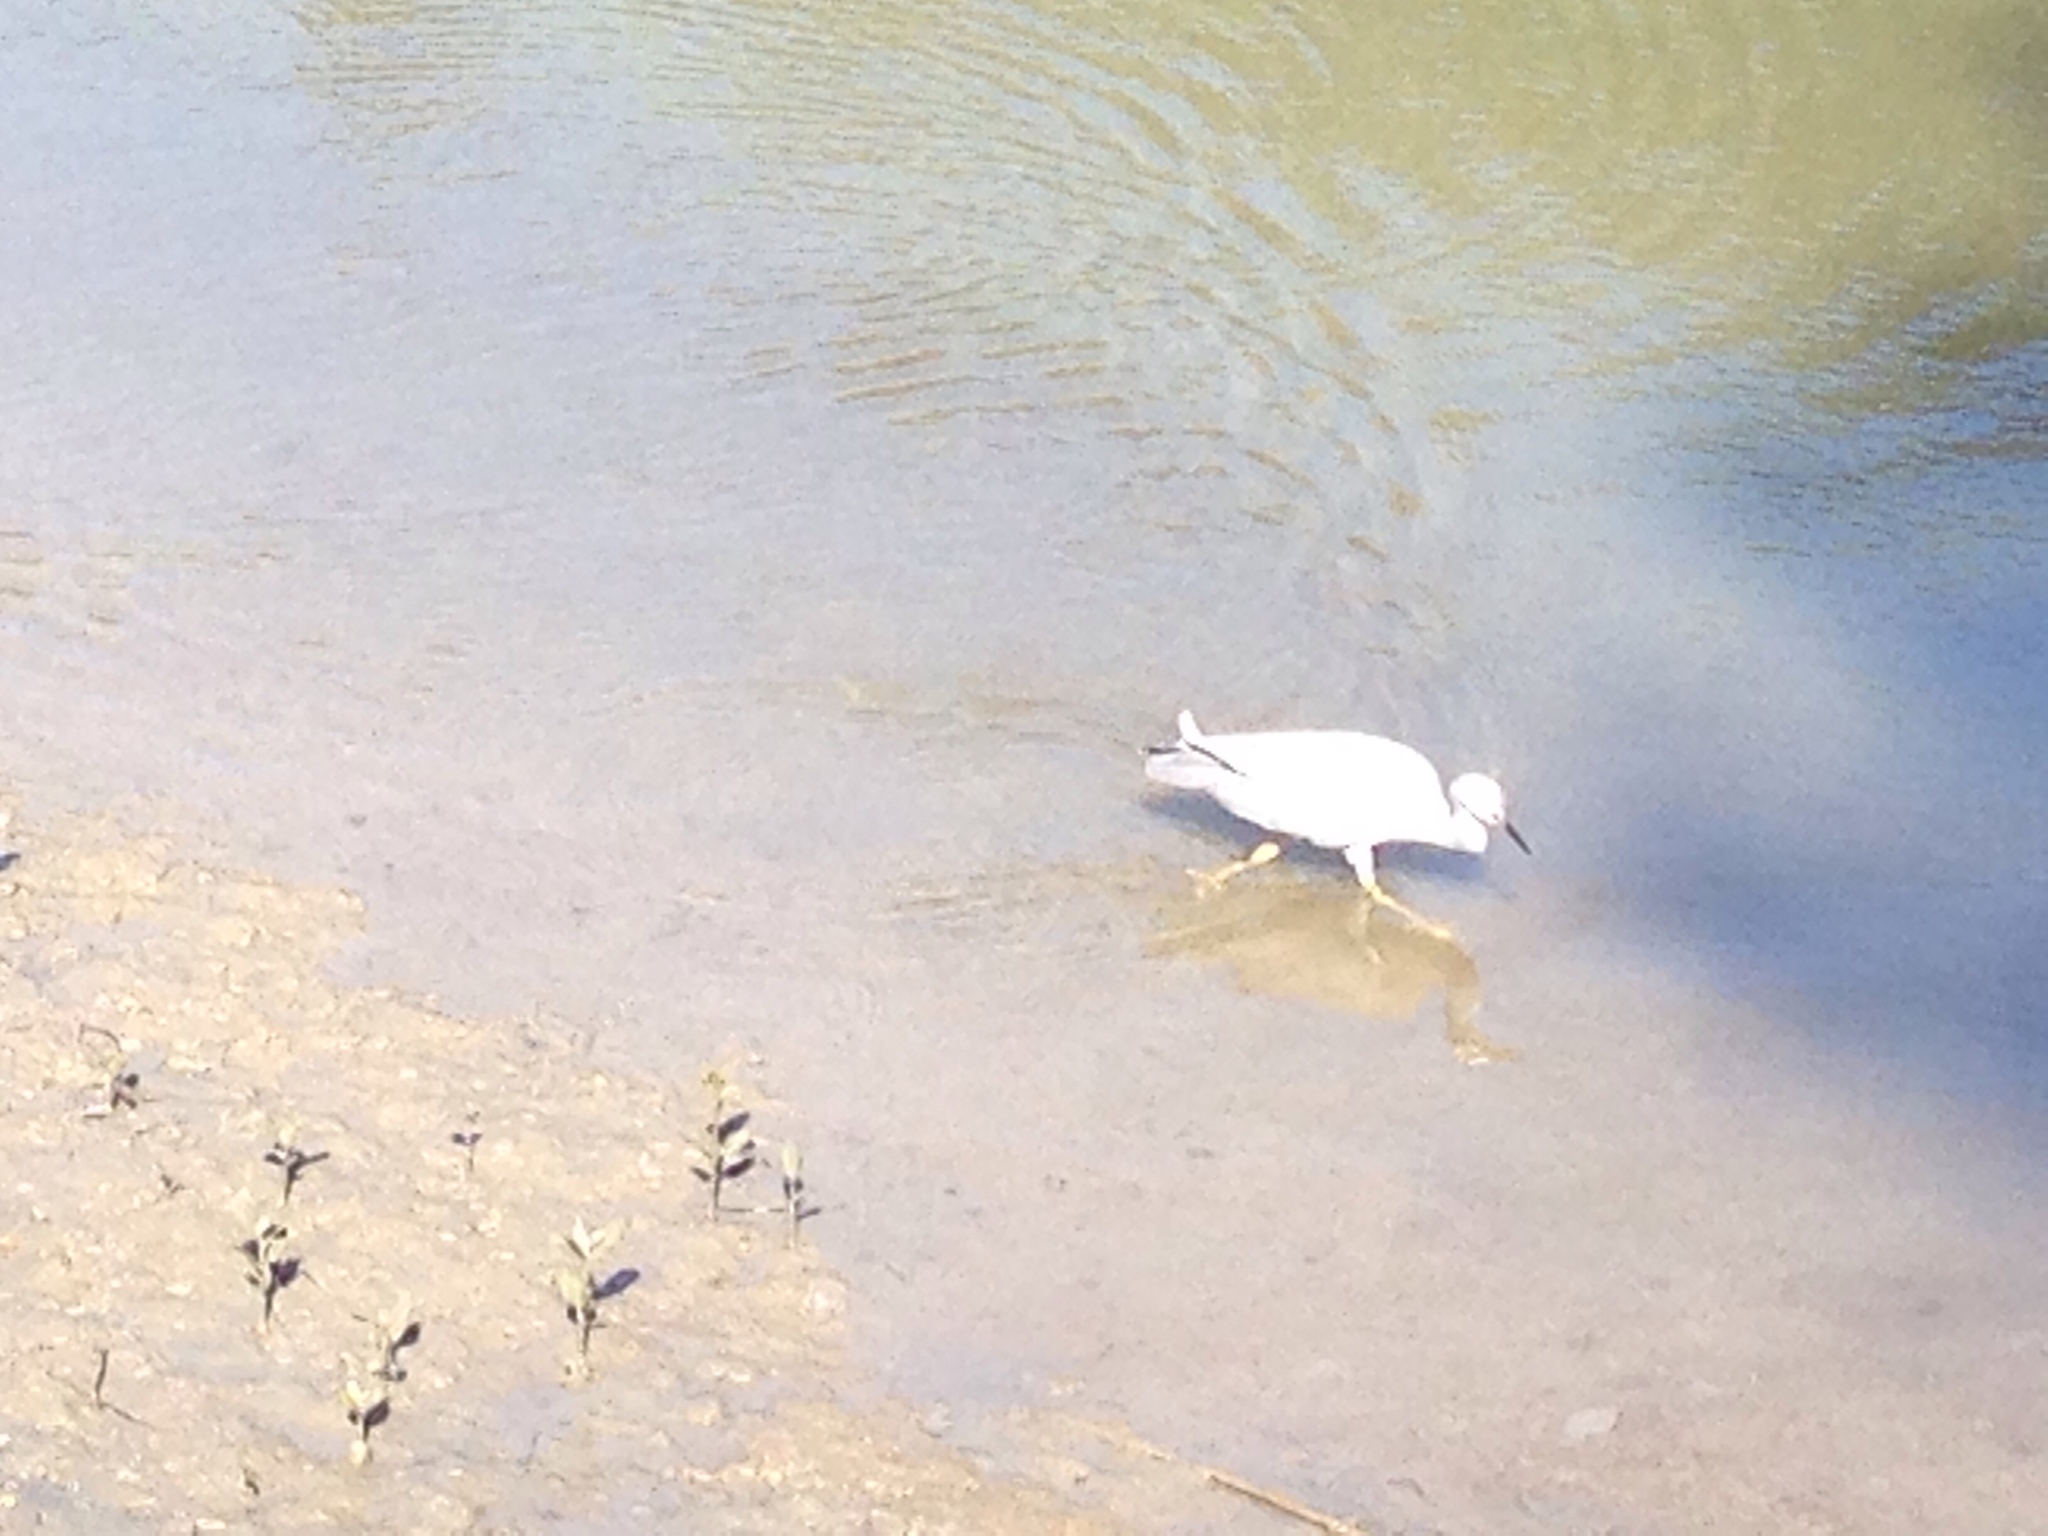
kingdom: Animalia
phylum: Chordata
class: Aves
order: Pelecaniformes
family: Ardeidae
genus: Egretta
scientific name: Egretta novaehollandiae
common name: White-faced heron
